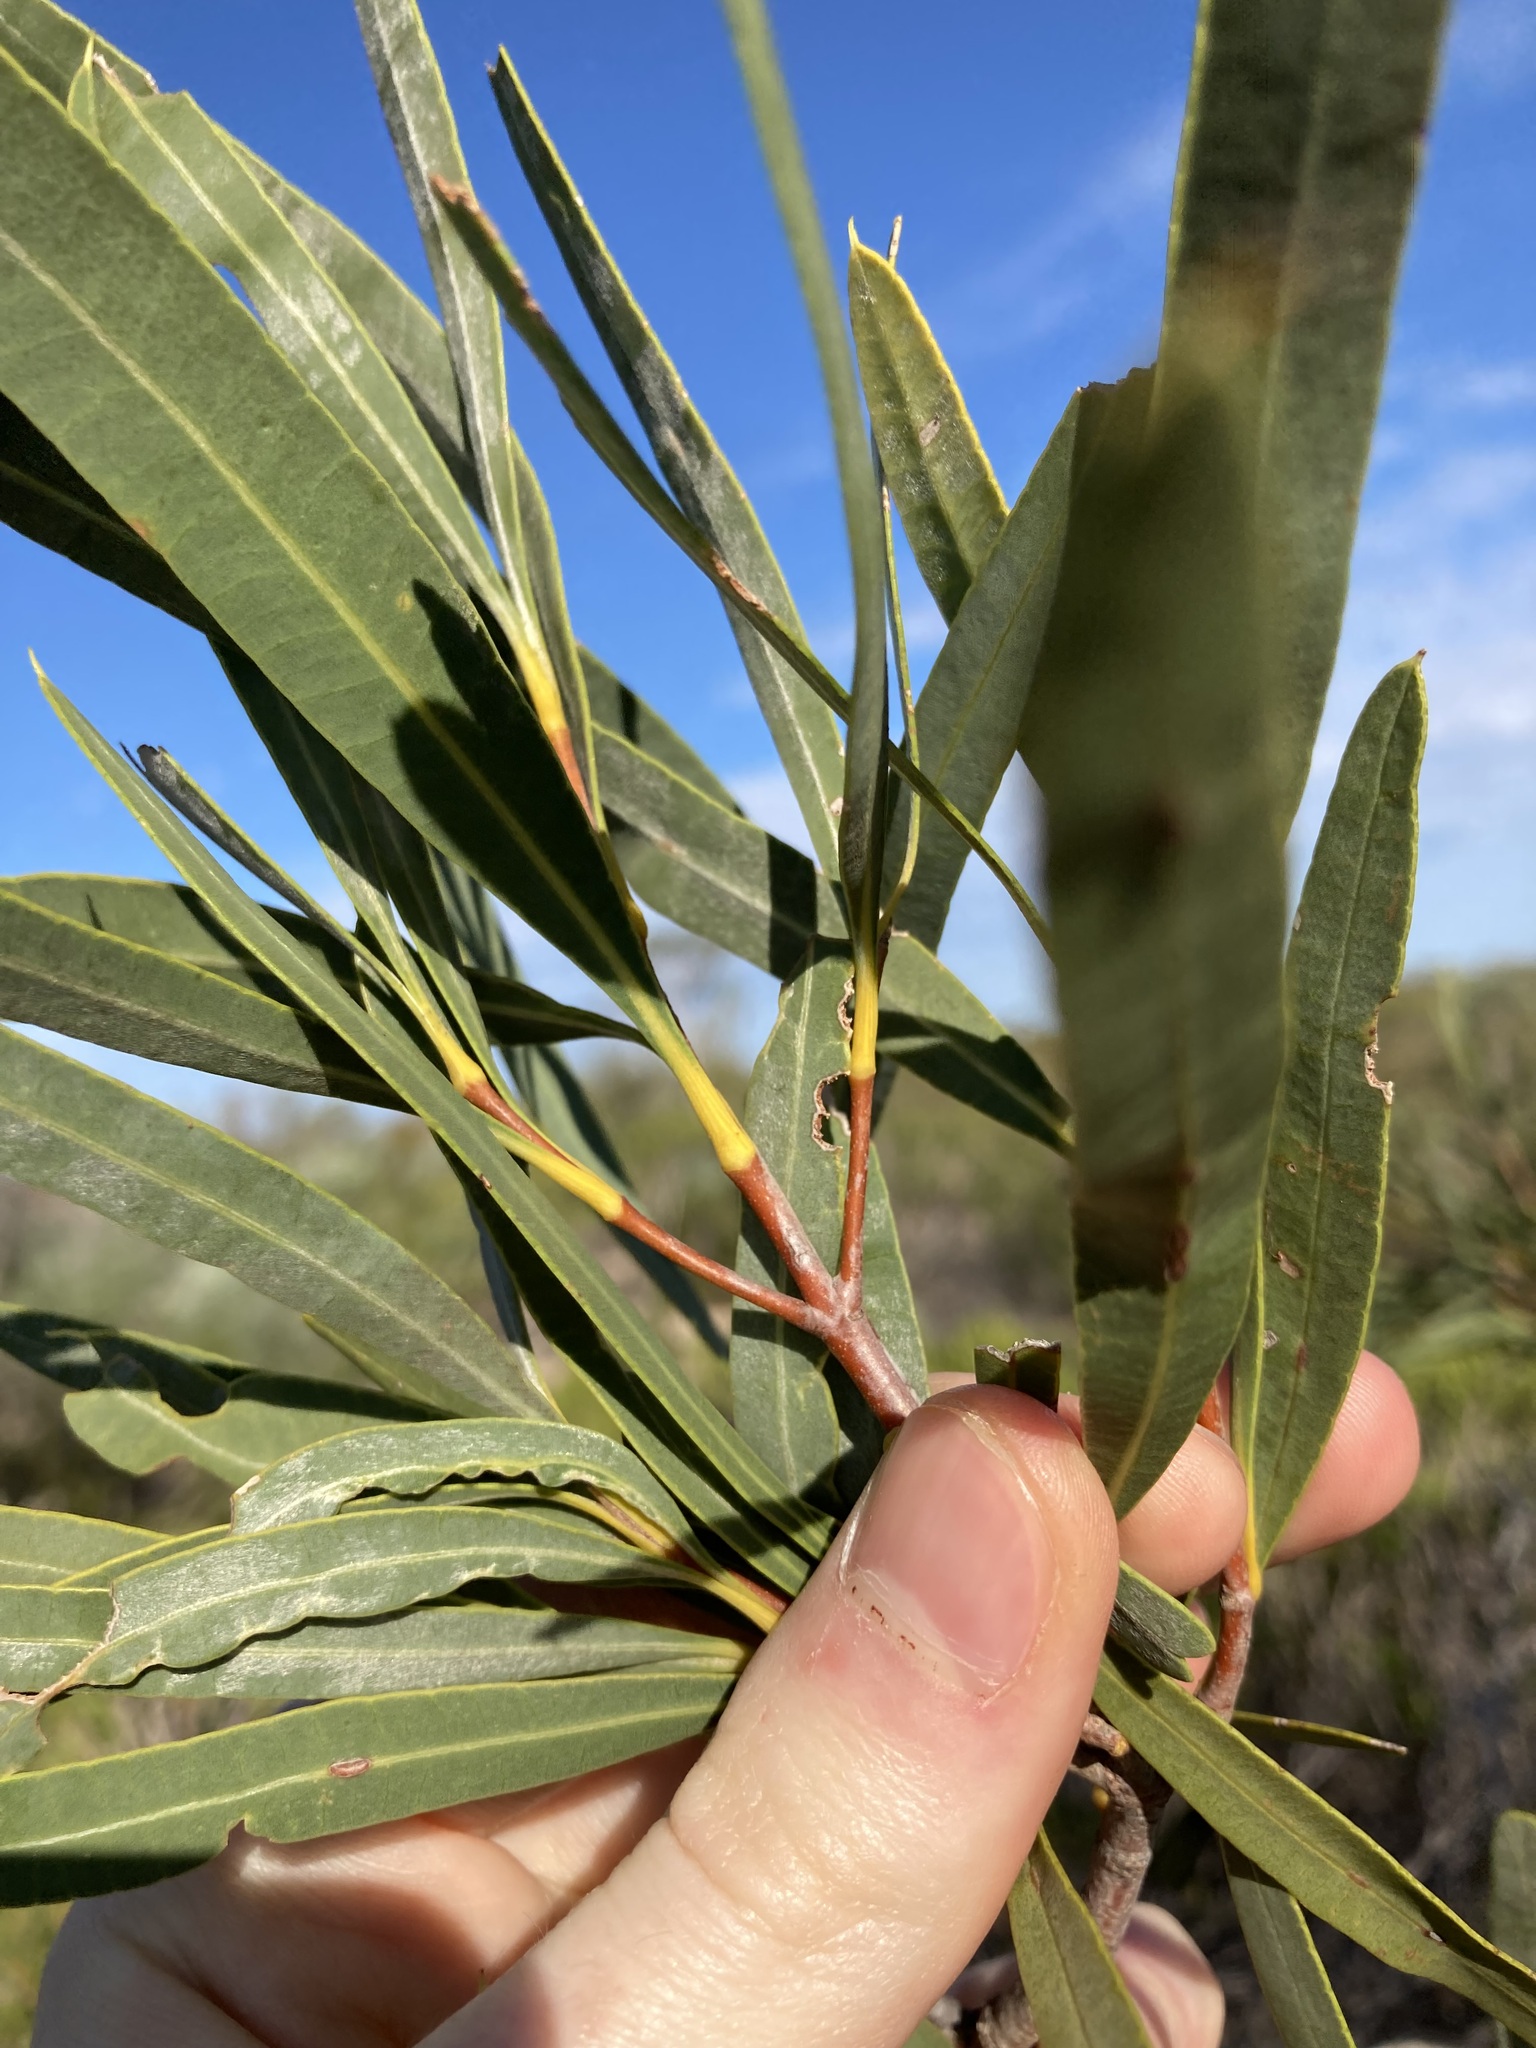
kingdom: Plantae
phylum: Tracheophyta
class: Magnoliopsida
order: Proteales
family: Proteaceae
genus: Xylomelum
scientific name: Xylomelum angustifolium
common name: Sandplain woody-pear
